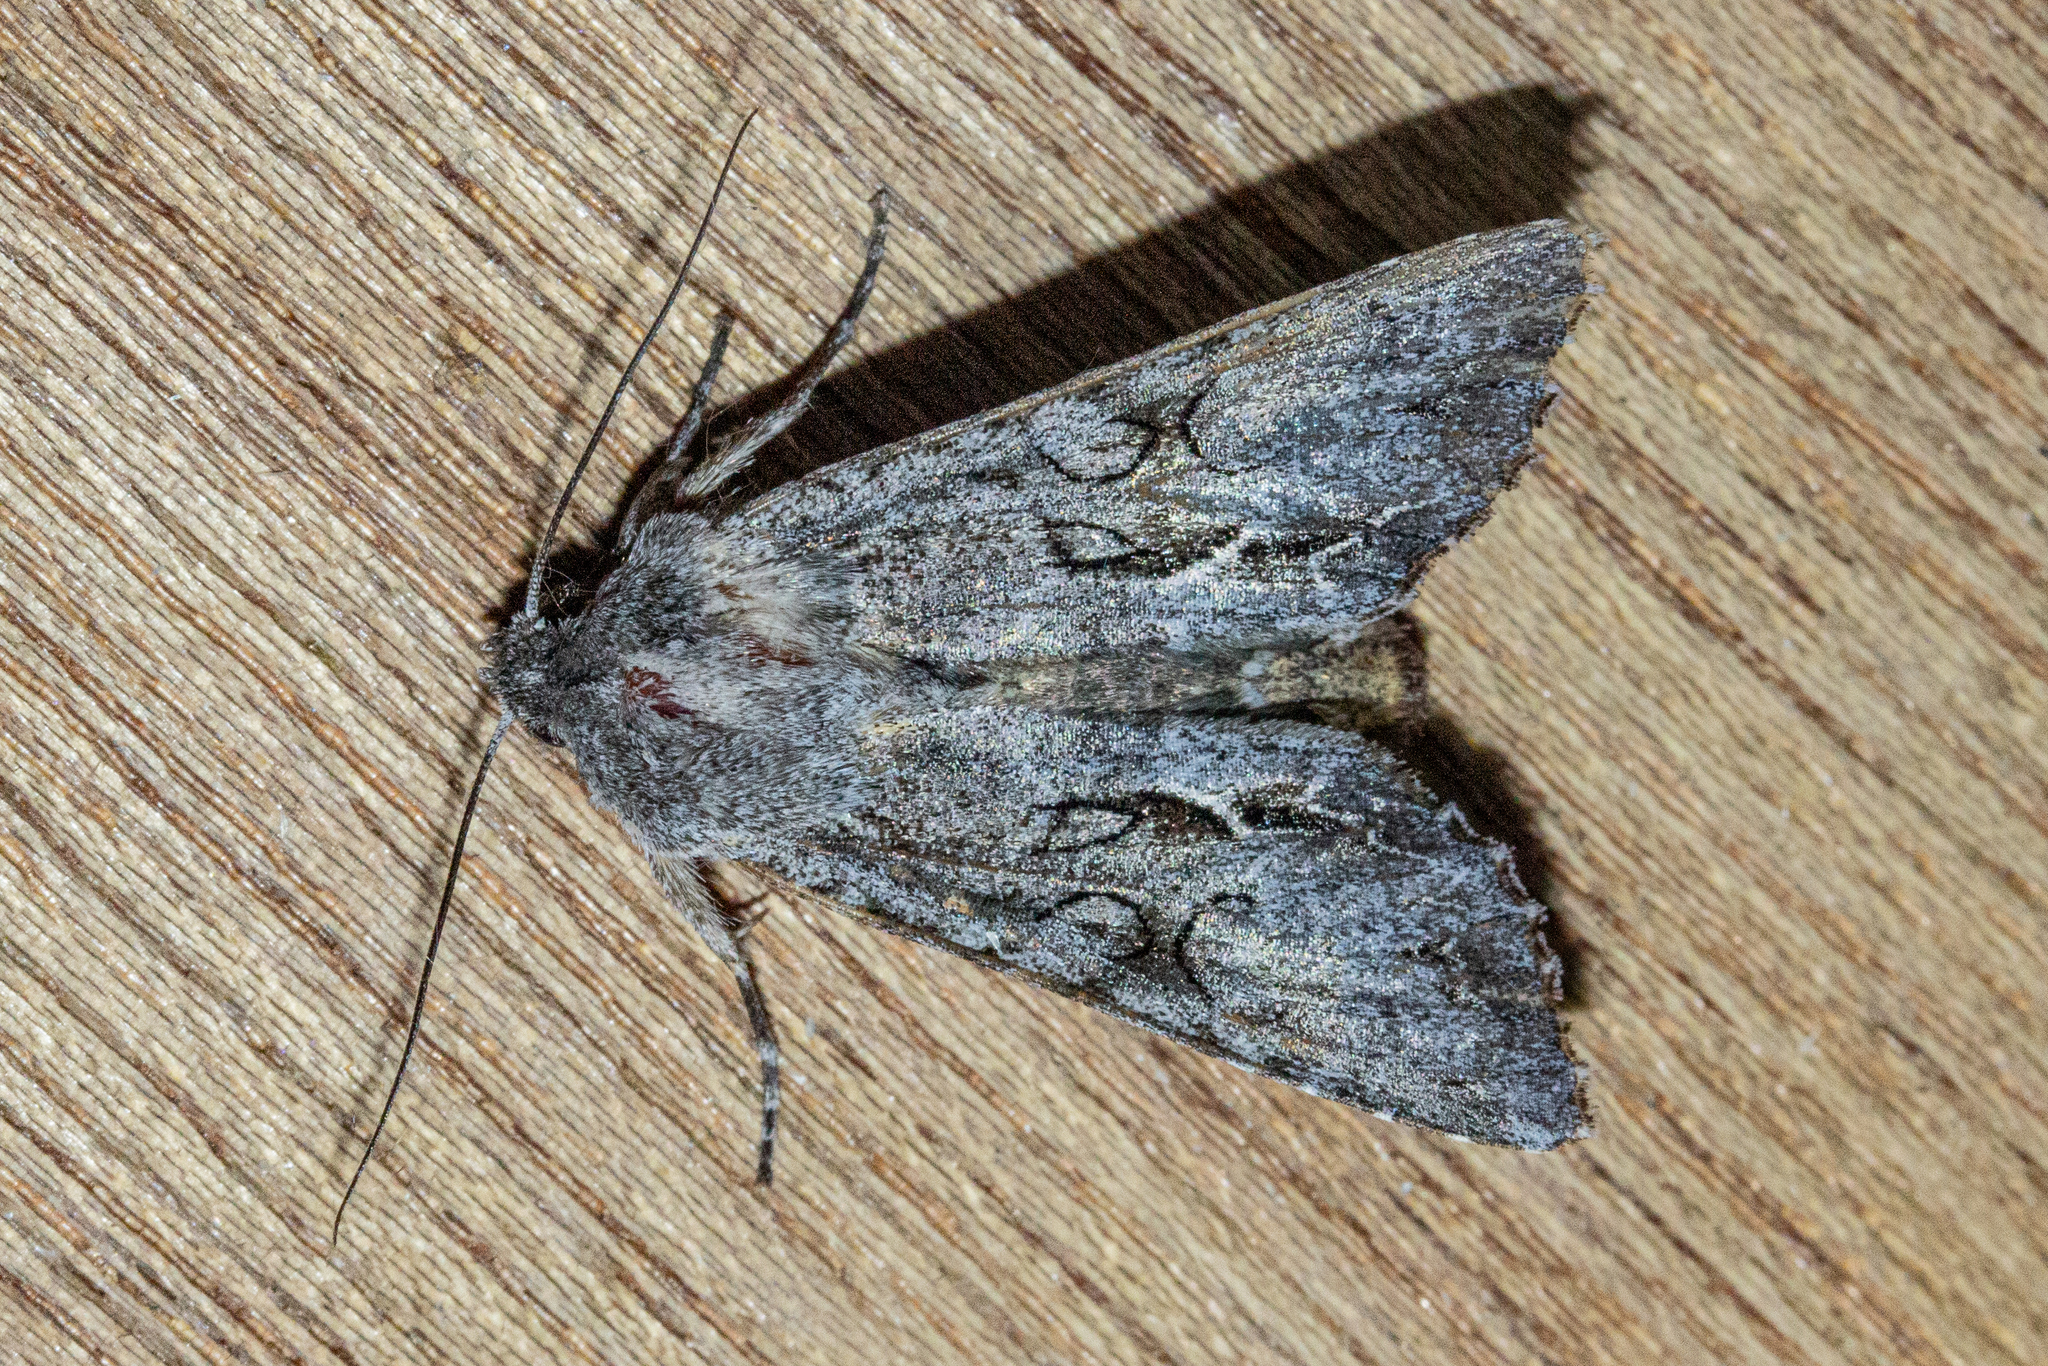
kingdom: Animalia
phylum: Arthropoda
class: Insecta
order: Lepidoptera
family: Noctuidae
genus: Ichneutica
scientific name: Ichneutica
